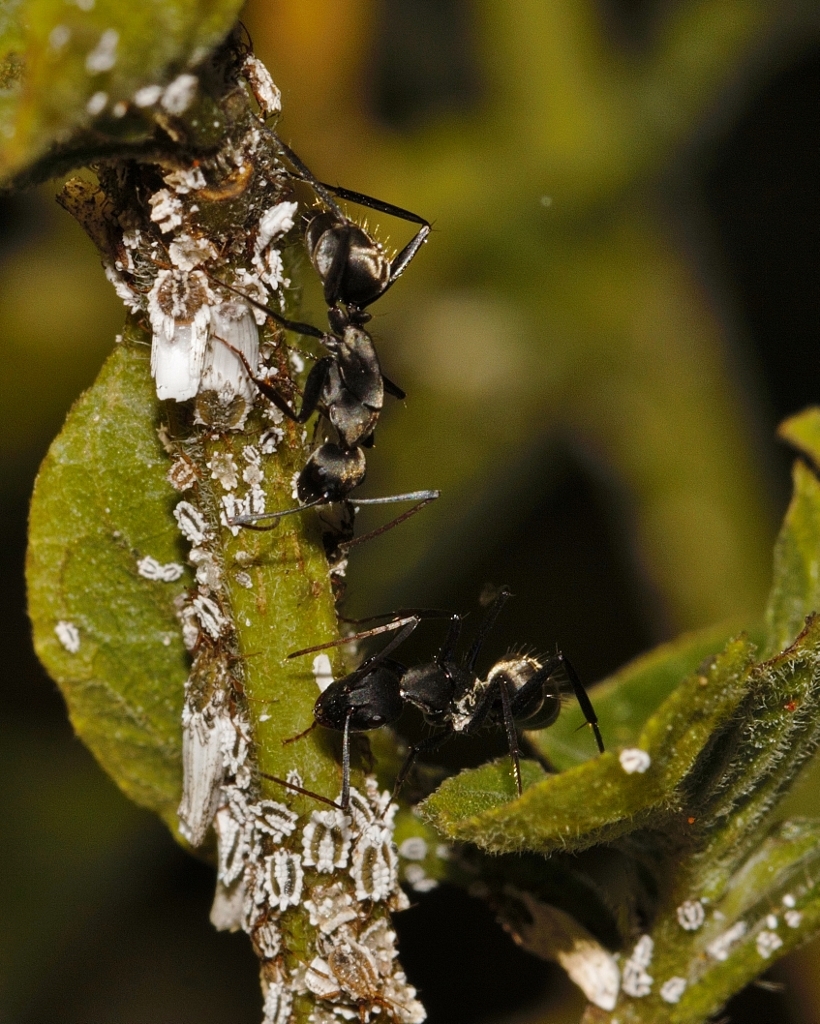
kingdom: Animalia
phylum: Arthropoda
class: Insecta
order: Hemiptera
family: Ortheziidae
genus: Insignorthezia
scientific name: Insignorthezia insignis
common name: Greenhouse orthezia
